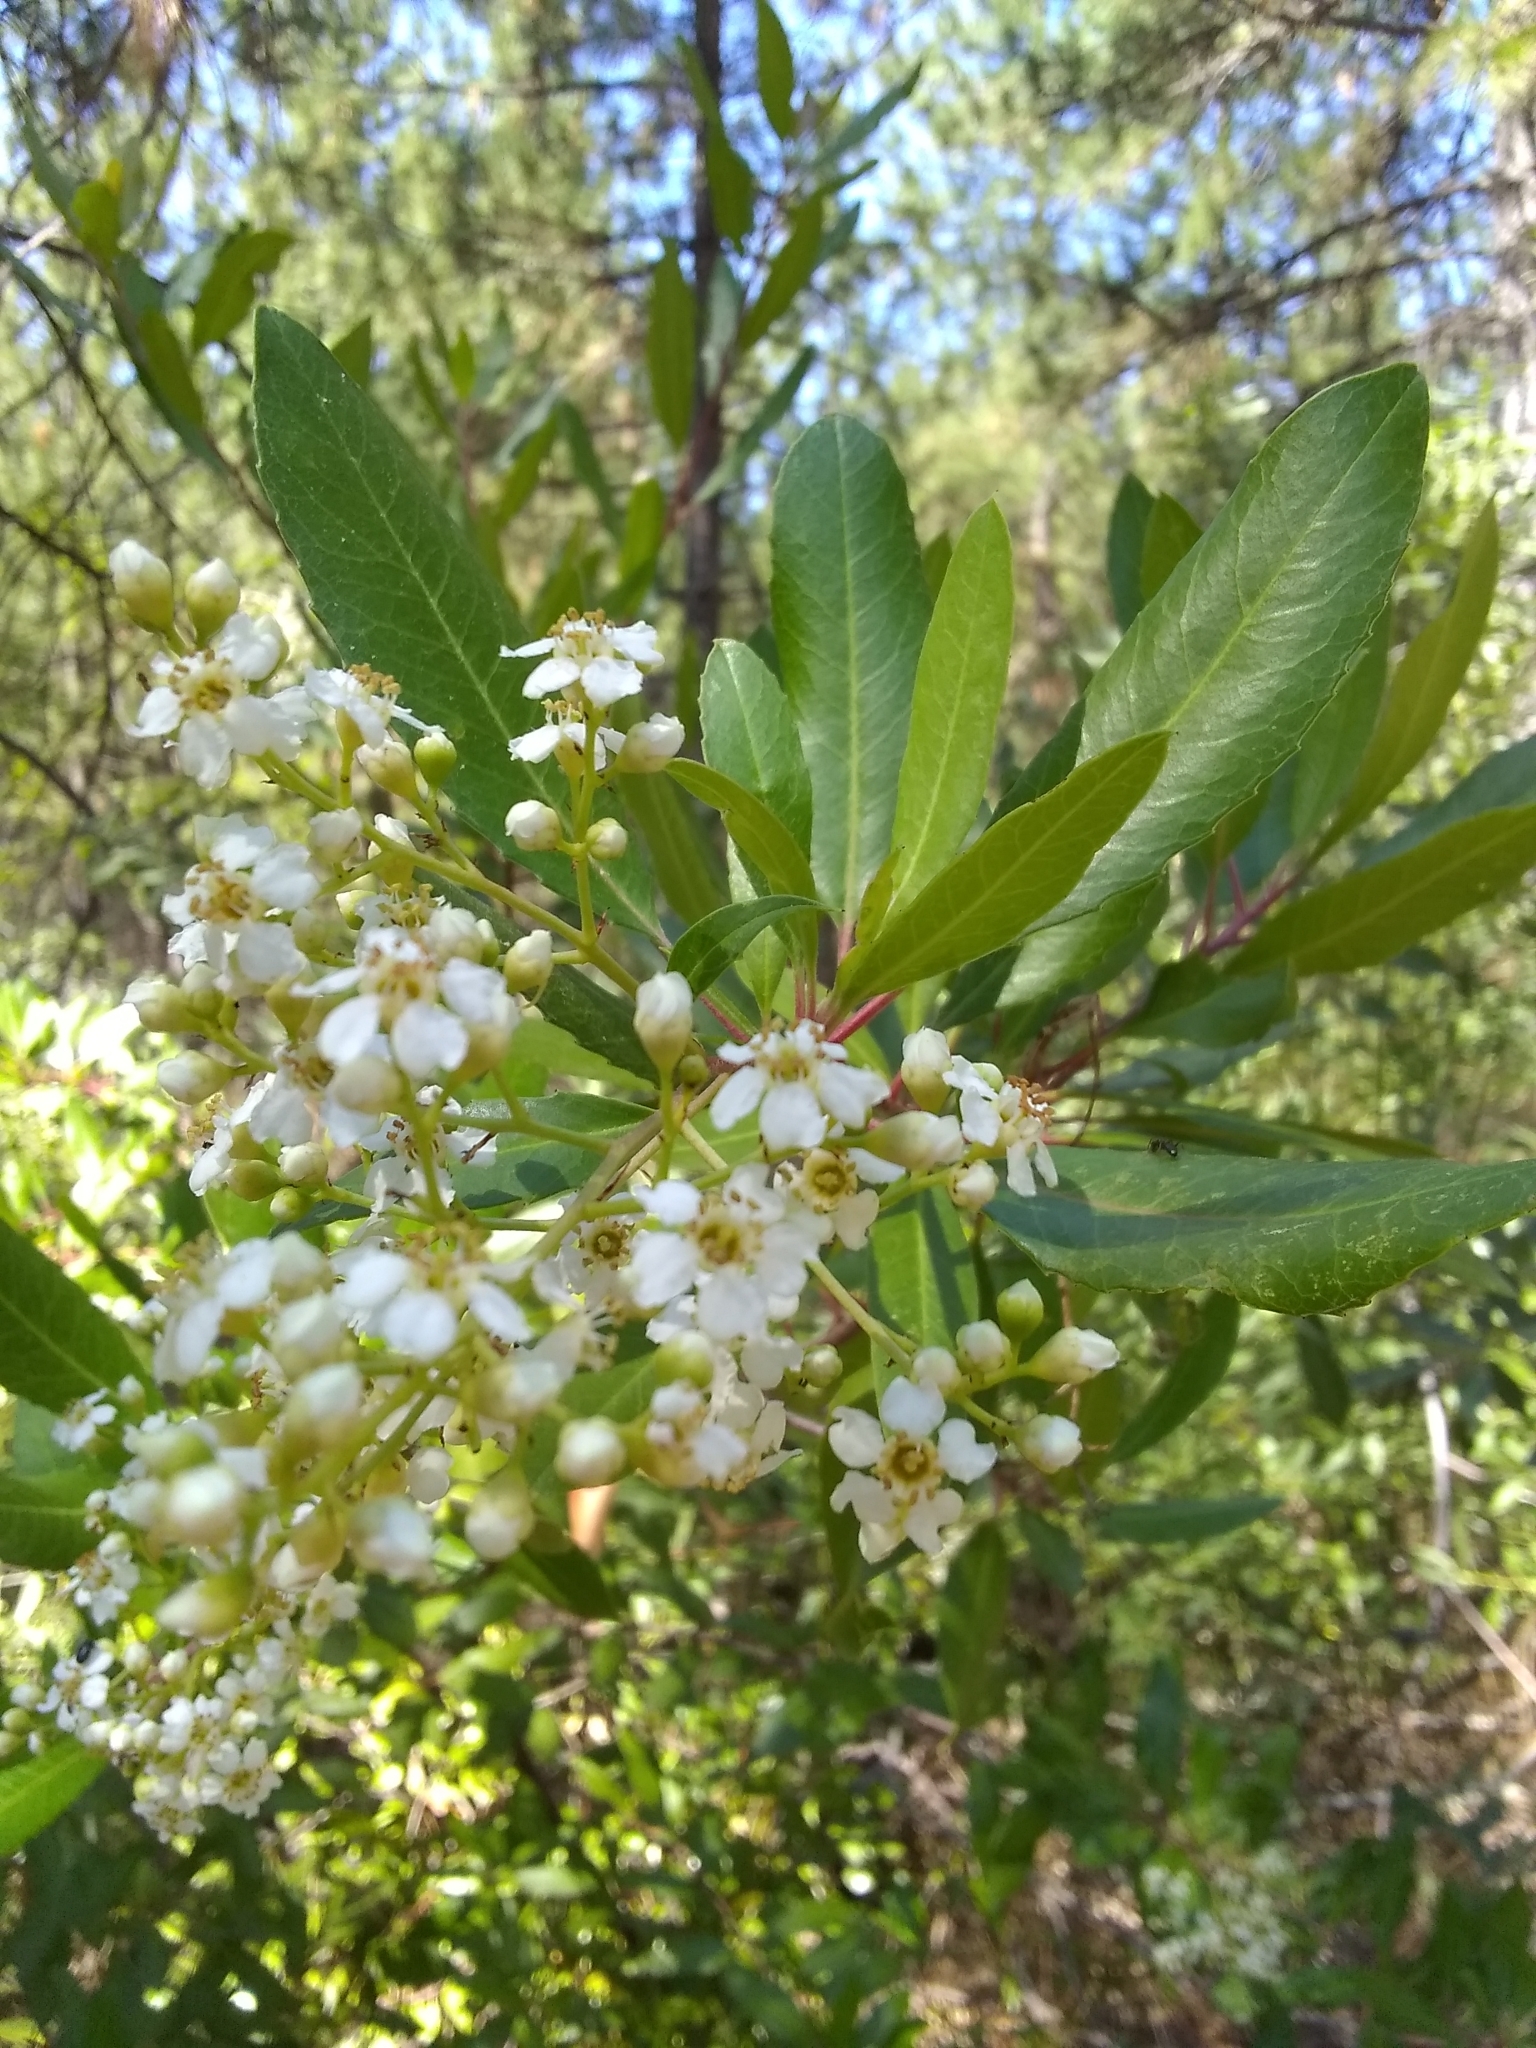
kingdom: Plantae
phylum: Tracheophyta
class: Magnoliopsida
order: Rosales
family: Rosaceae
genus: Heteromeles
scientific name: Heteromeles arbutifolia
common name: California-holly
